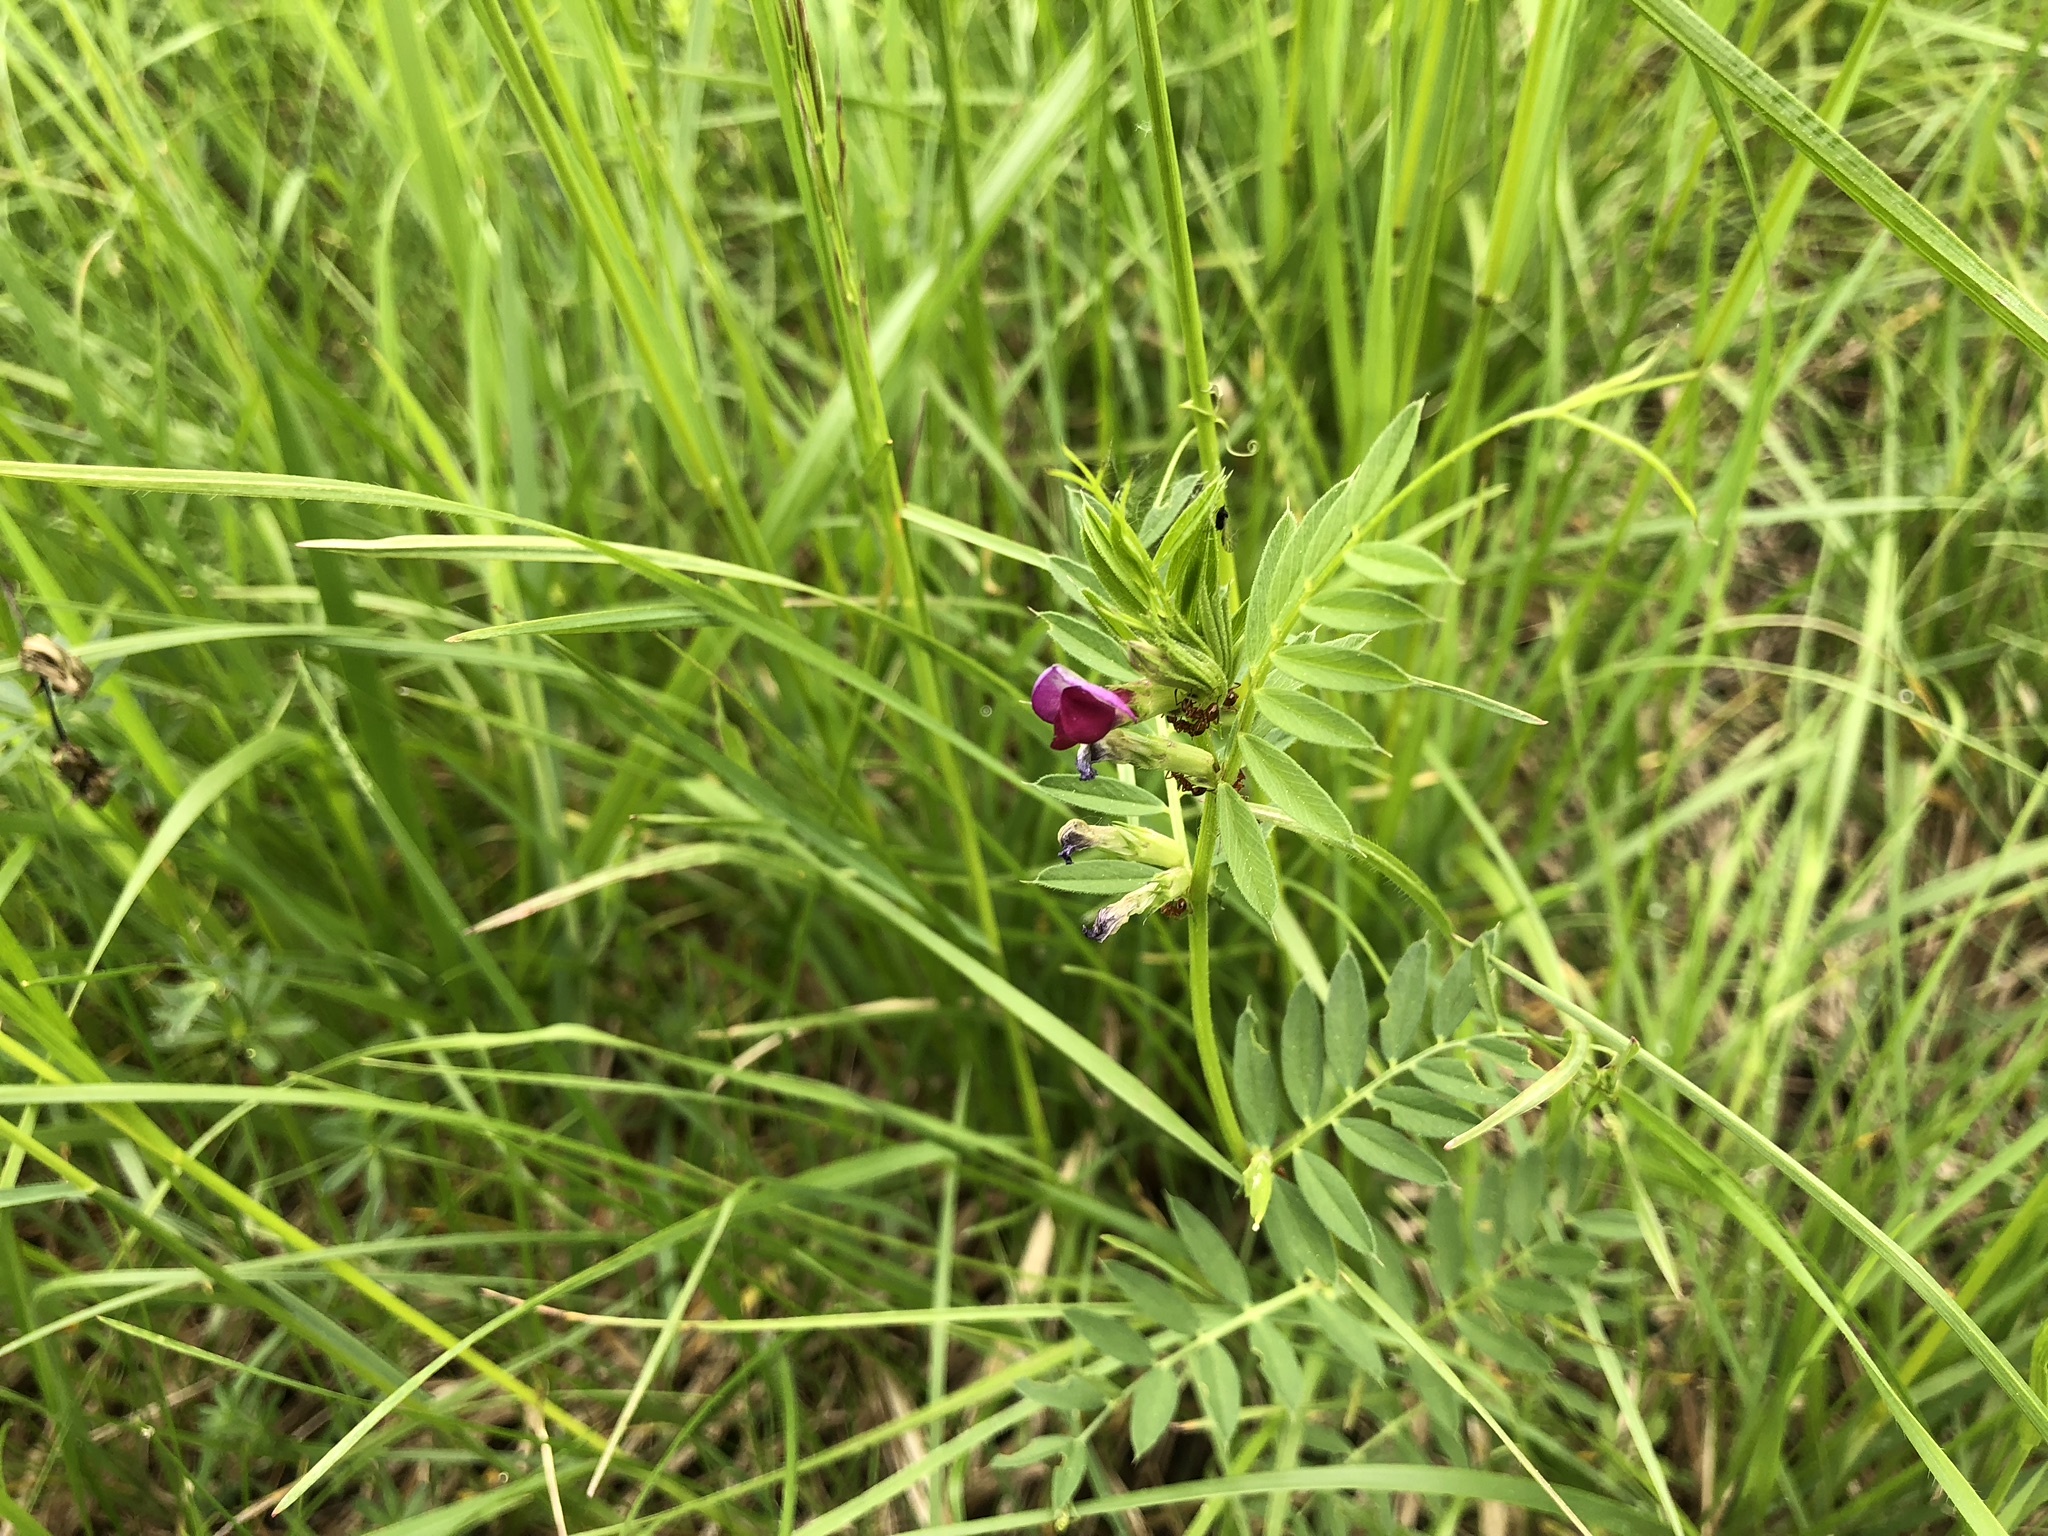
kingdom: Plantae
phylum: Tracheophyta
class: Magnoliopsida
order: Fabales
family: Fabaceae
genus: Vicia
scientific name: Vicia sativa
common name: Garden vetch
